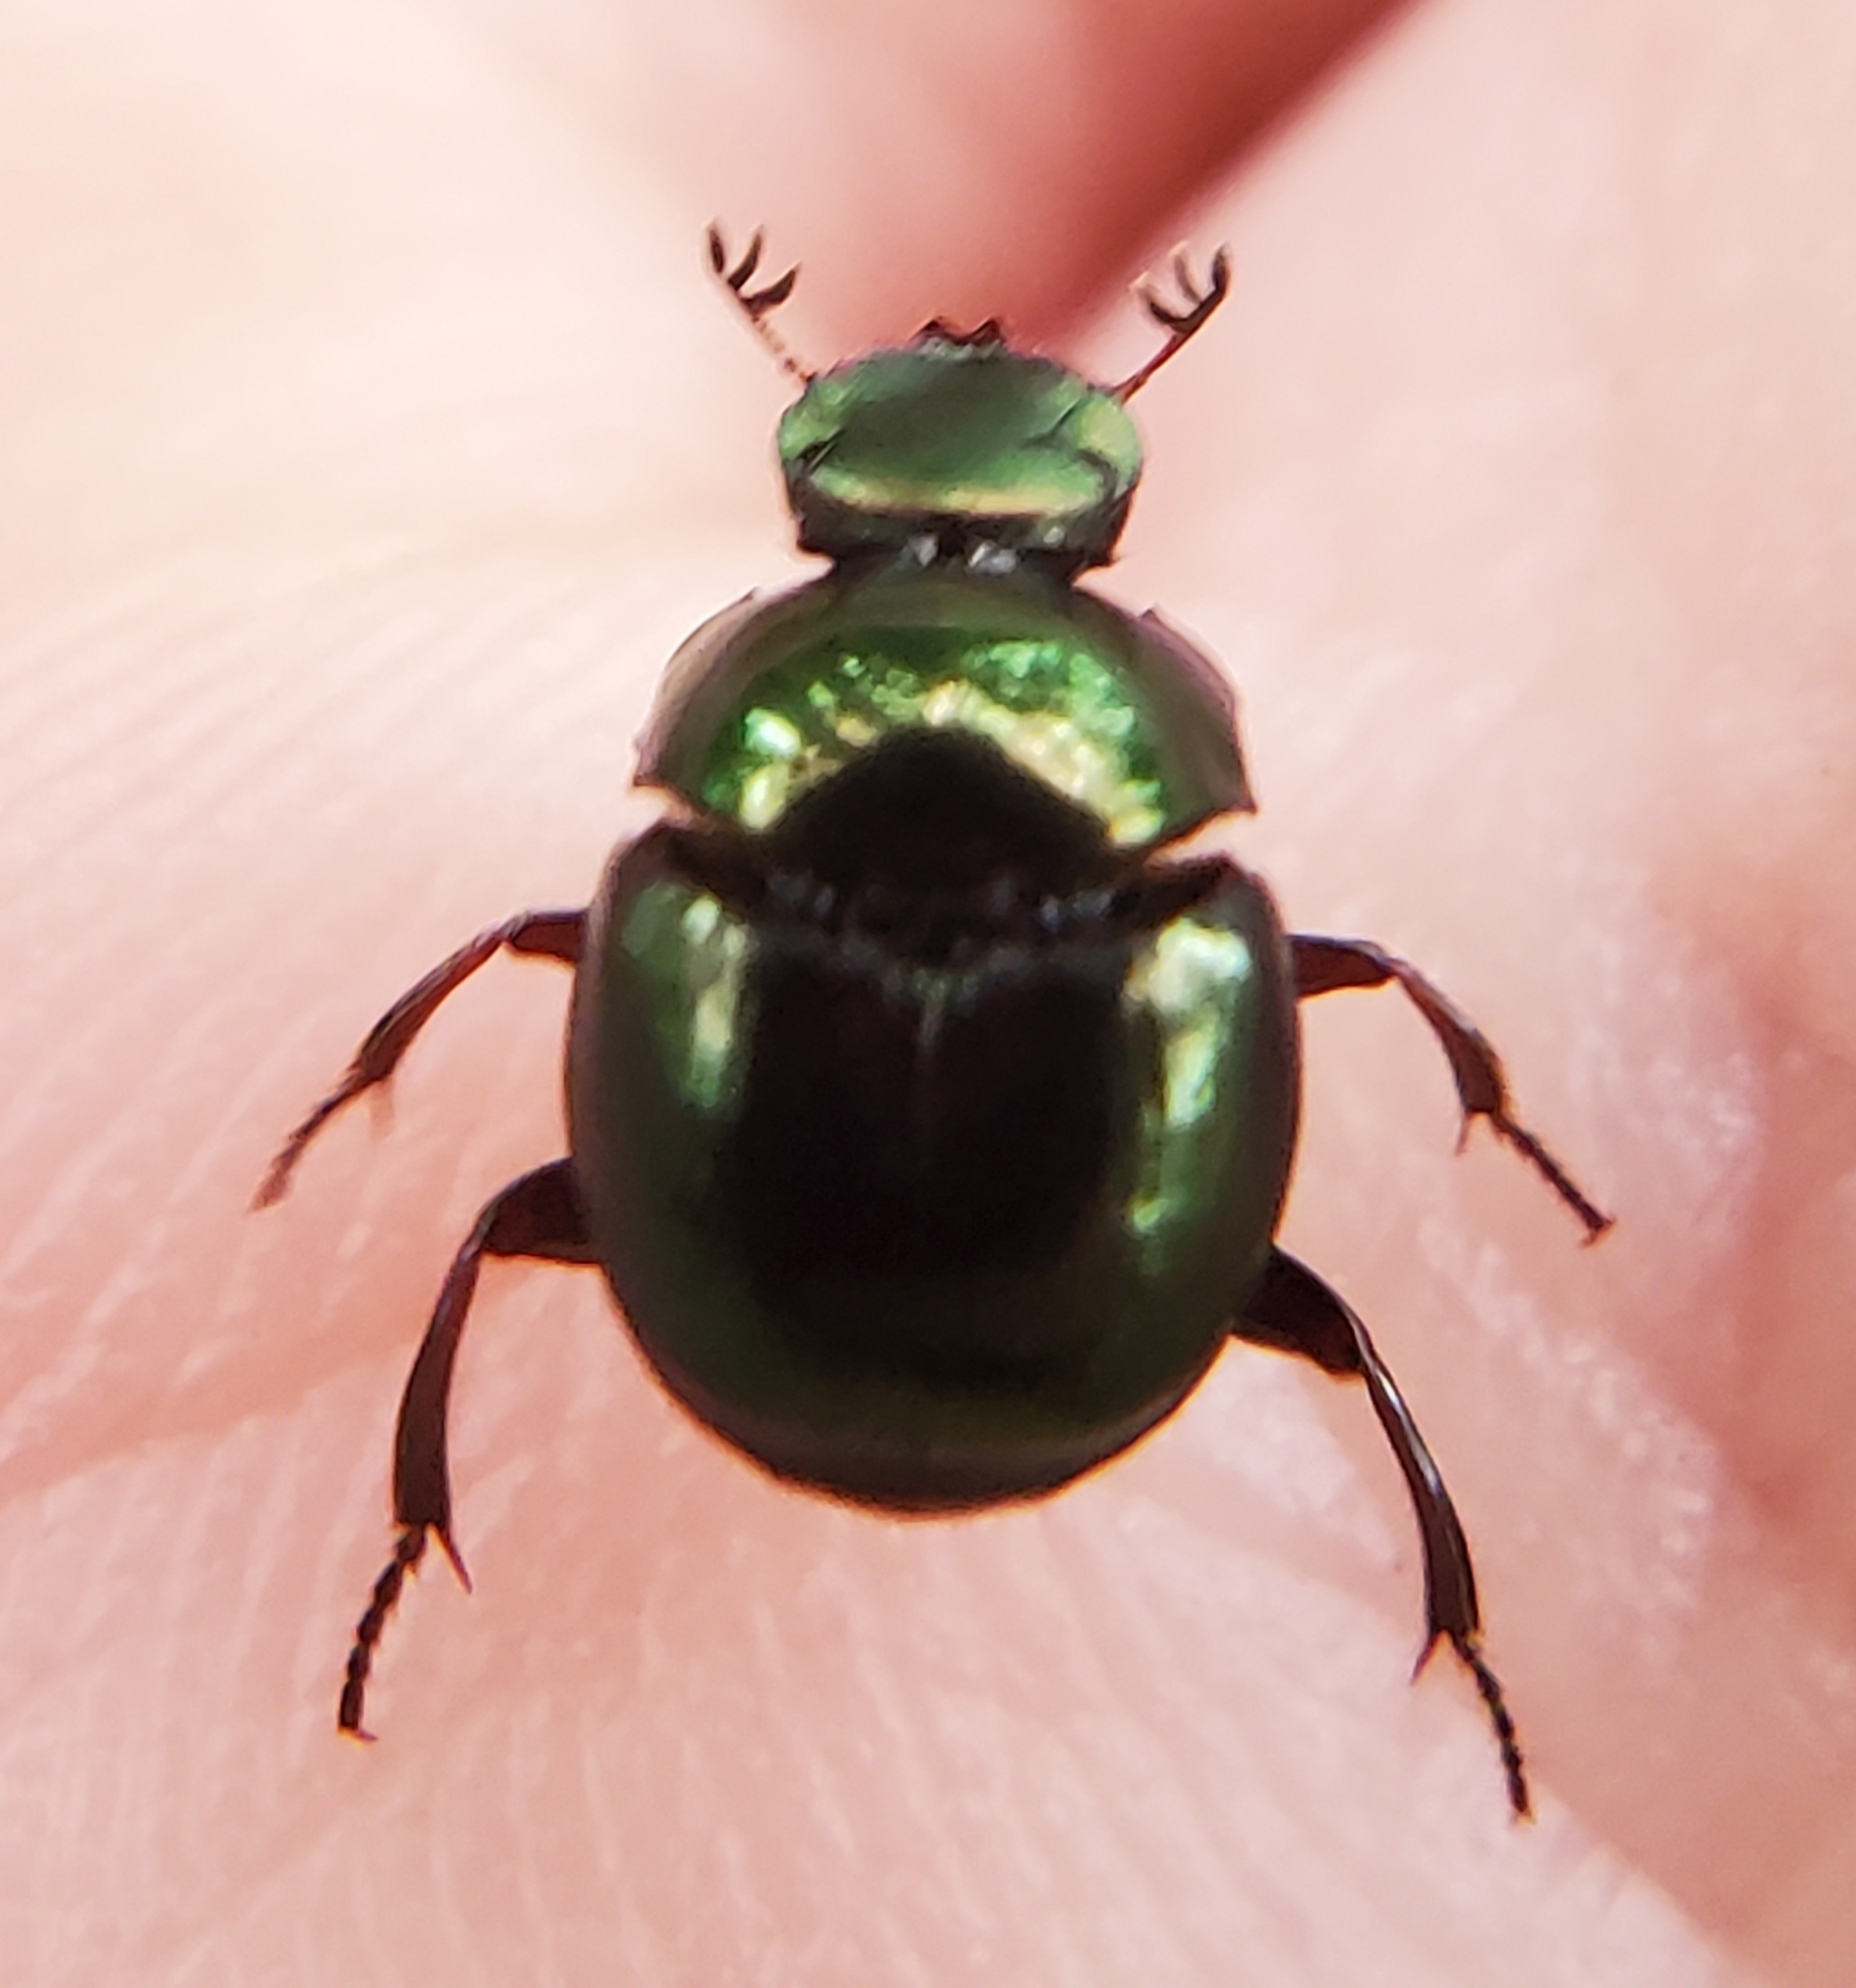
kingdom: Animalia
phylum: Arthropoda
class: Insecta
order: Coleoptera
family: Scarabaeidae
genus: Canthon
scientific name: Canthon viridis
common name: Tumblebug
